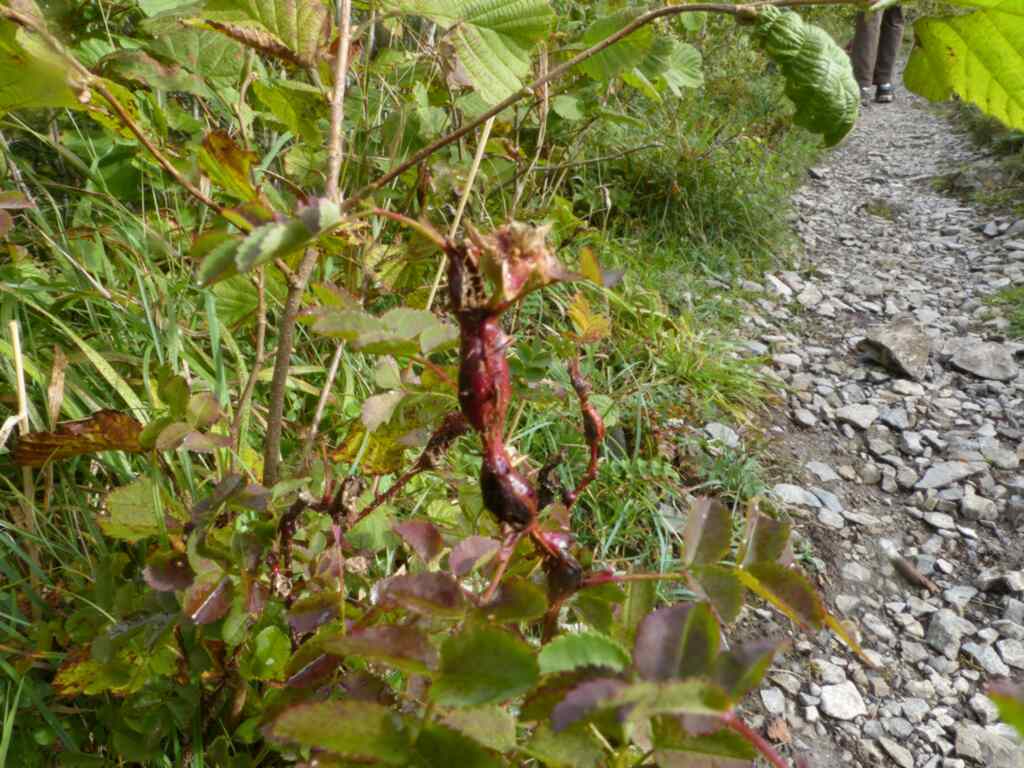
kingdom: Animalia
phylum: Arthropoda
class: Insecta
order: Diptera
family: Cecidomyiidae
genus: Janetiella
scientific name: Janetiella frankumi
